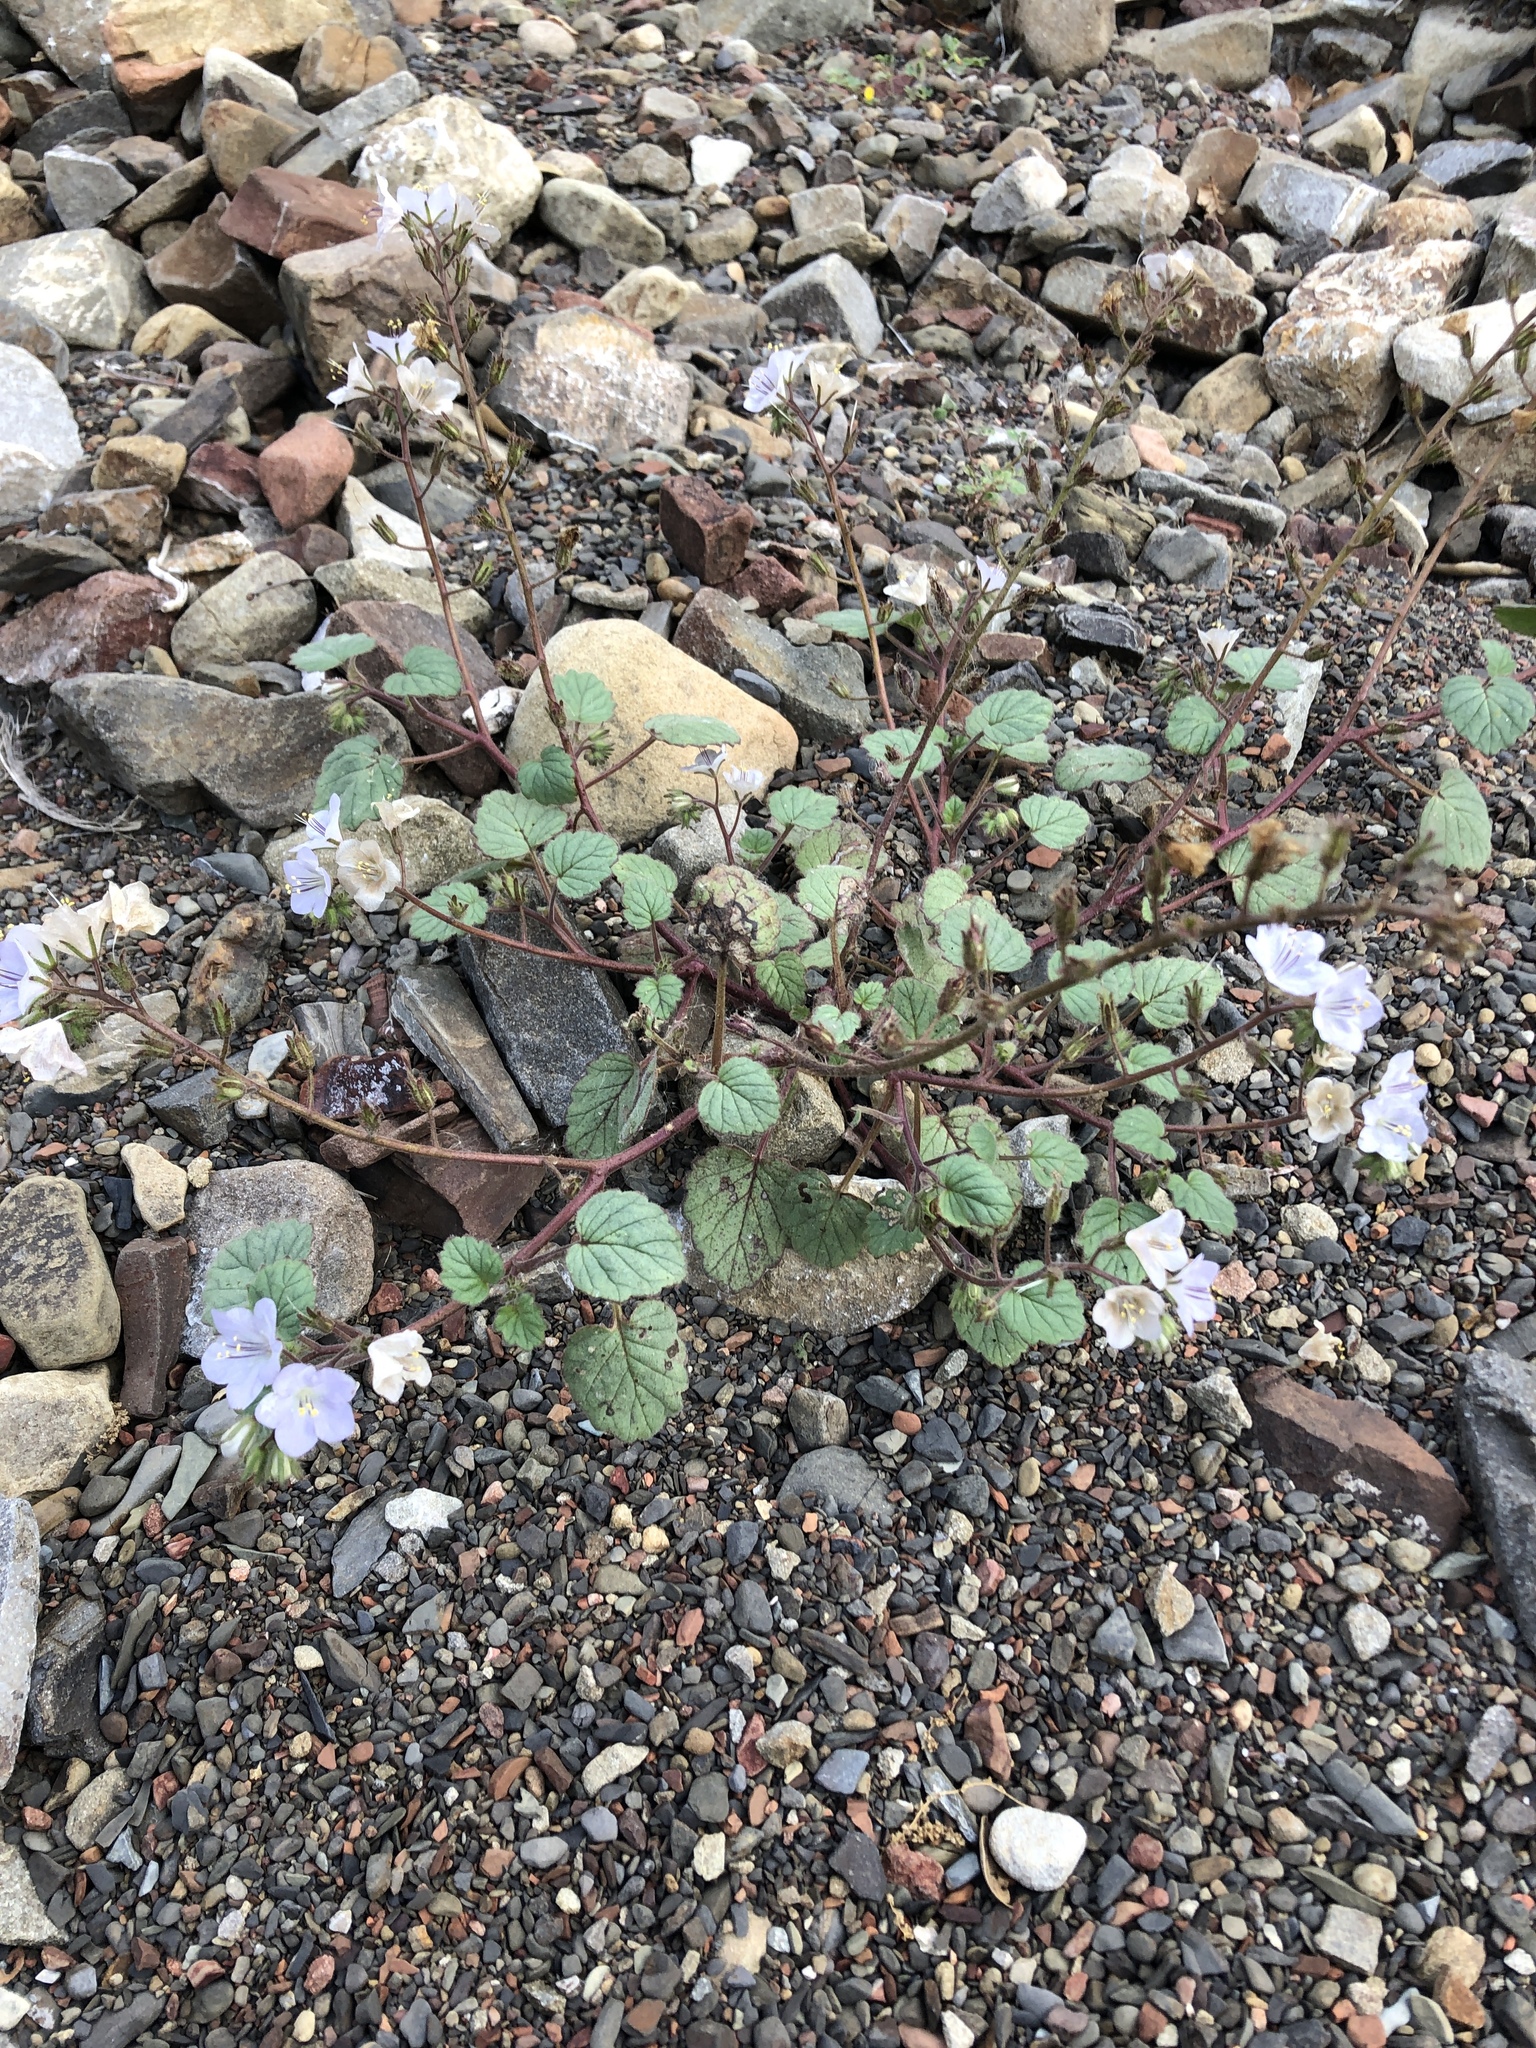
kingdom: Plantae
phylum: Tracheophyta
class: Magnoliopsida
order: Boraginales
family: Hydrophyllaceae
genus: Phacelia
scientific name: Phacelia longipes
